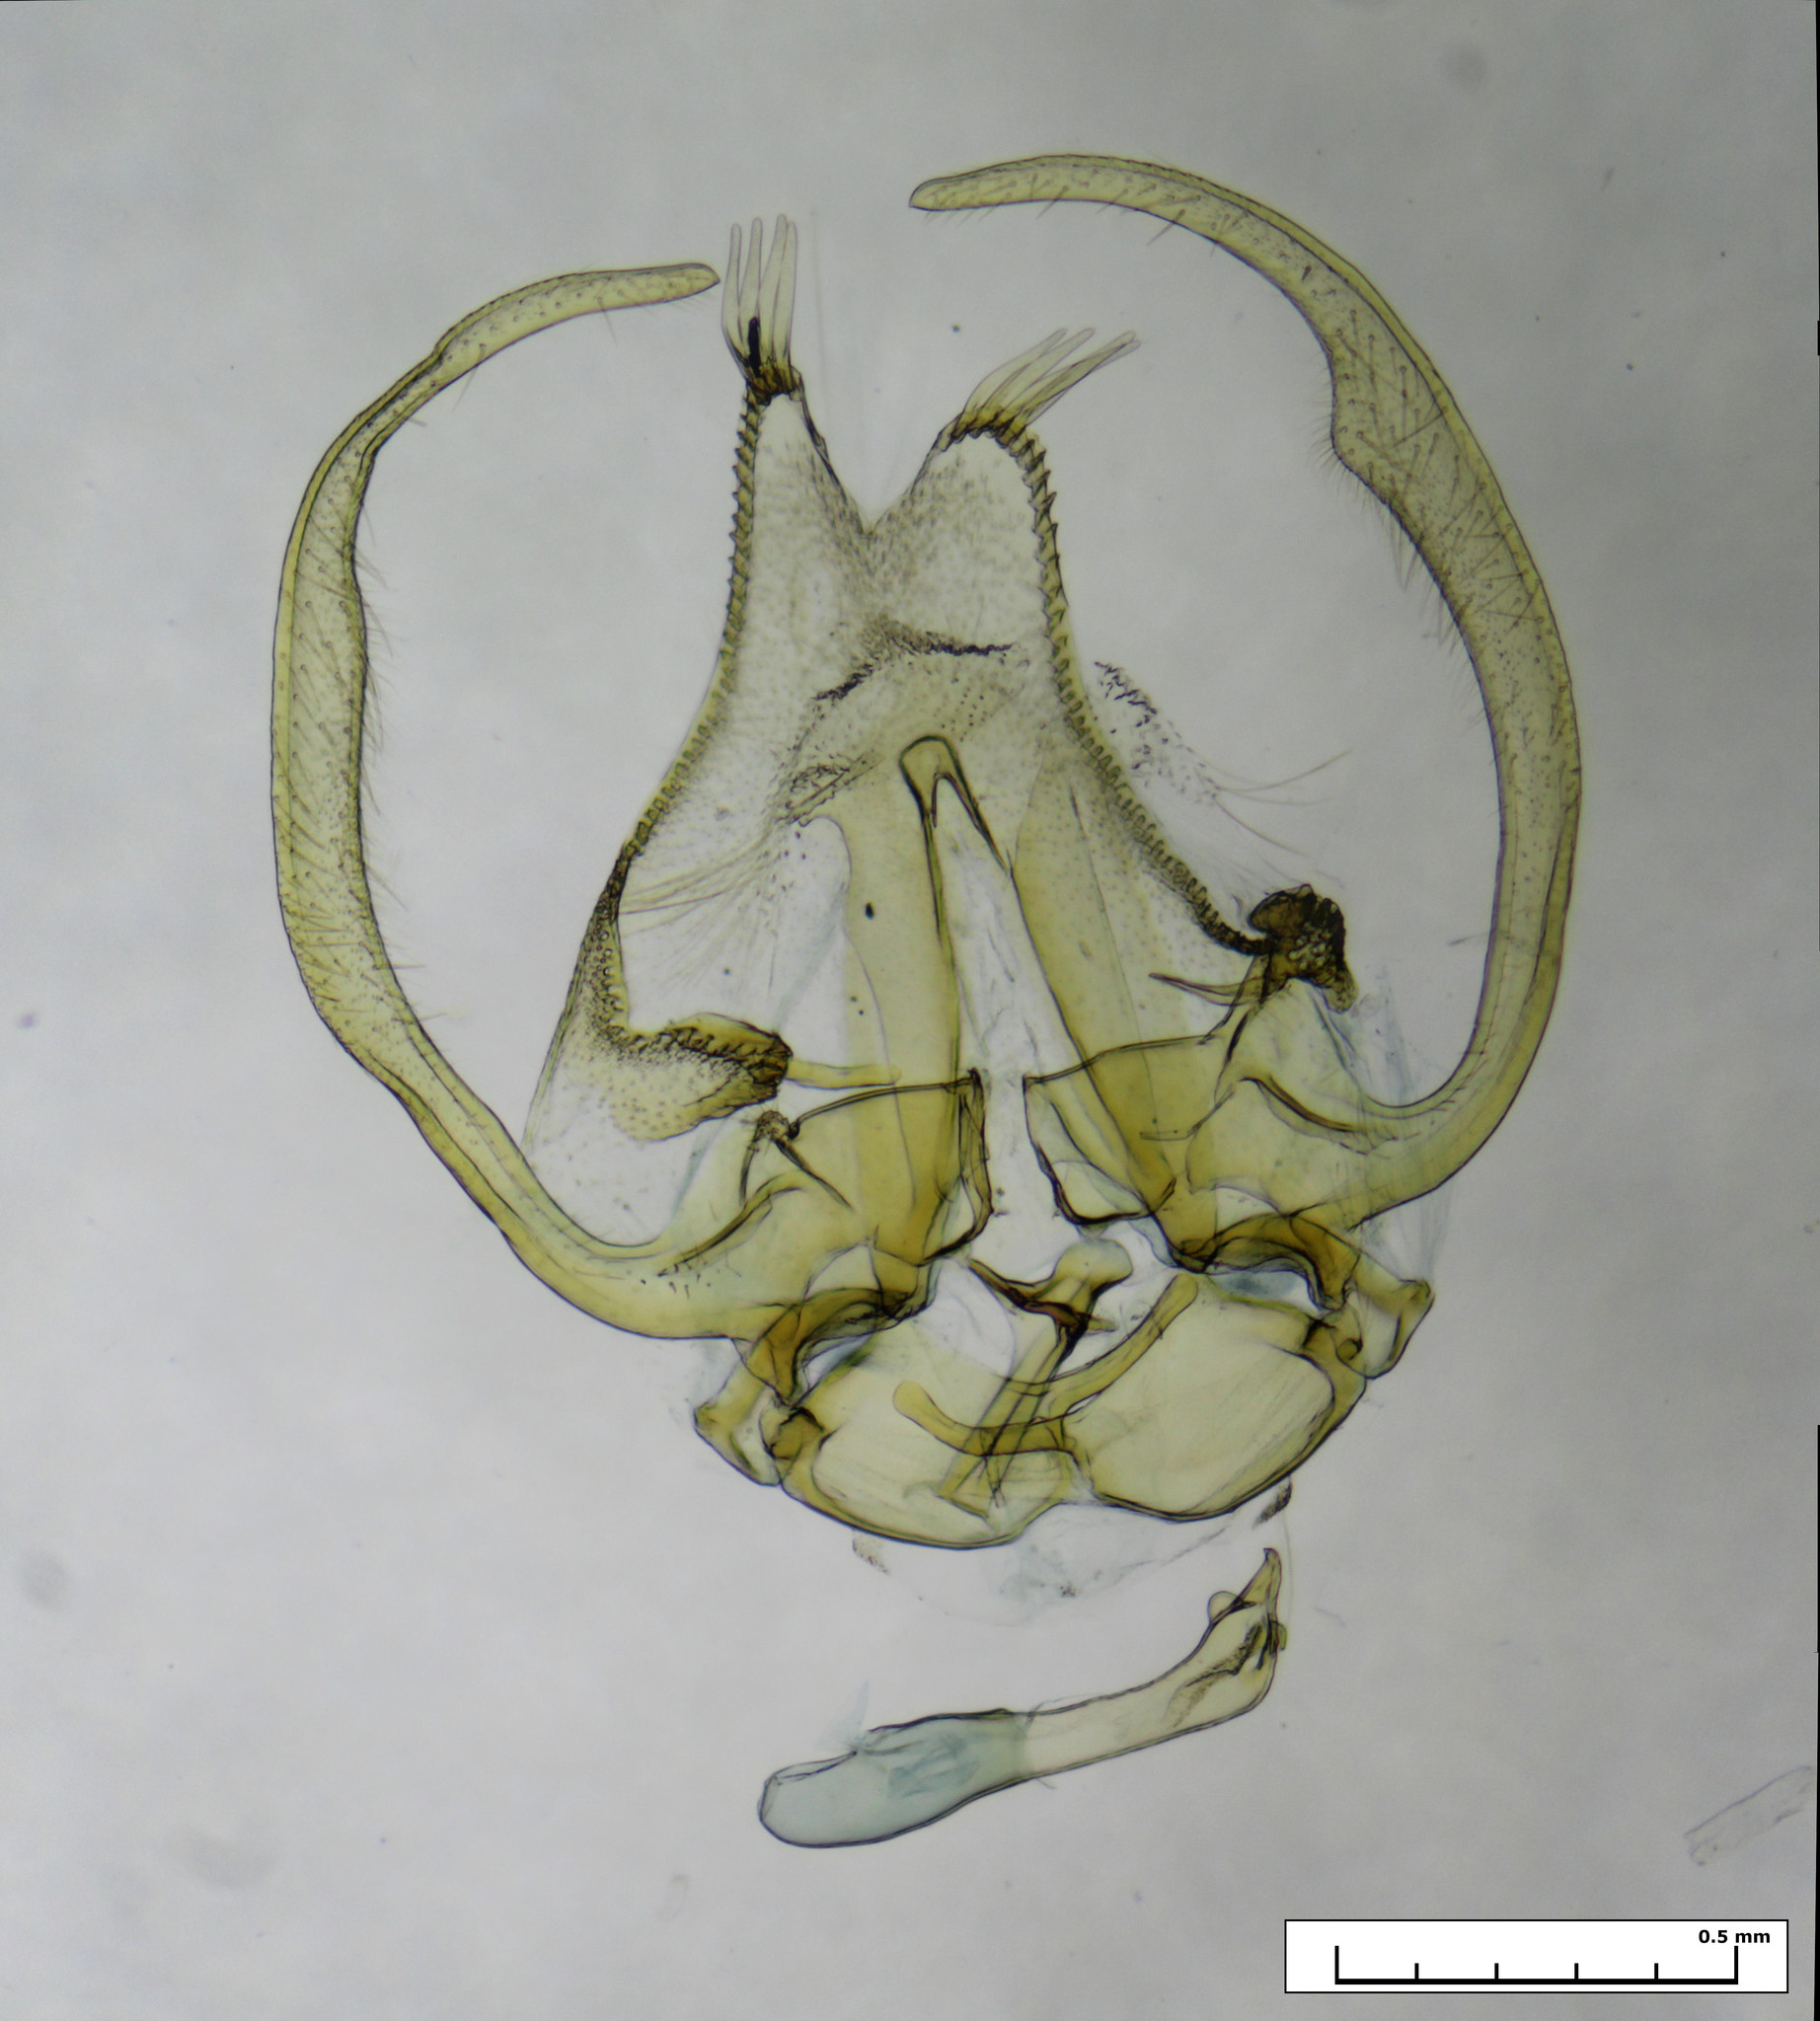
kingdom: Animalia
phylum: Arthropoda
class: Insecta
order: Lepidoptera
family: Pterophoridae
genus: Stangeia
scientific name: Stangeia xerodes
